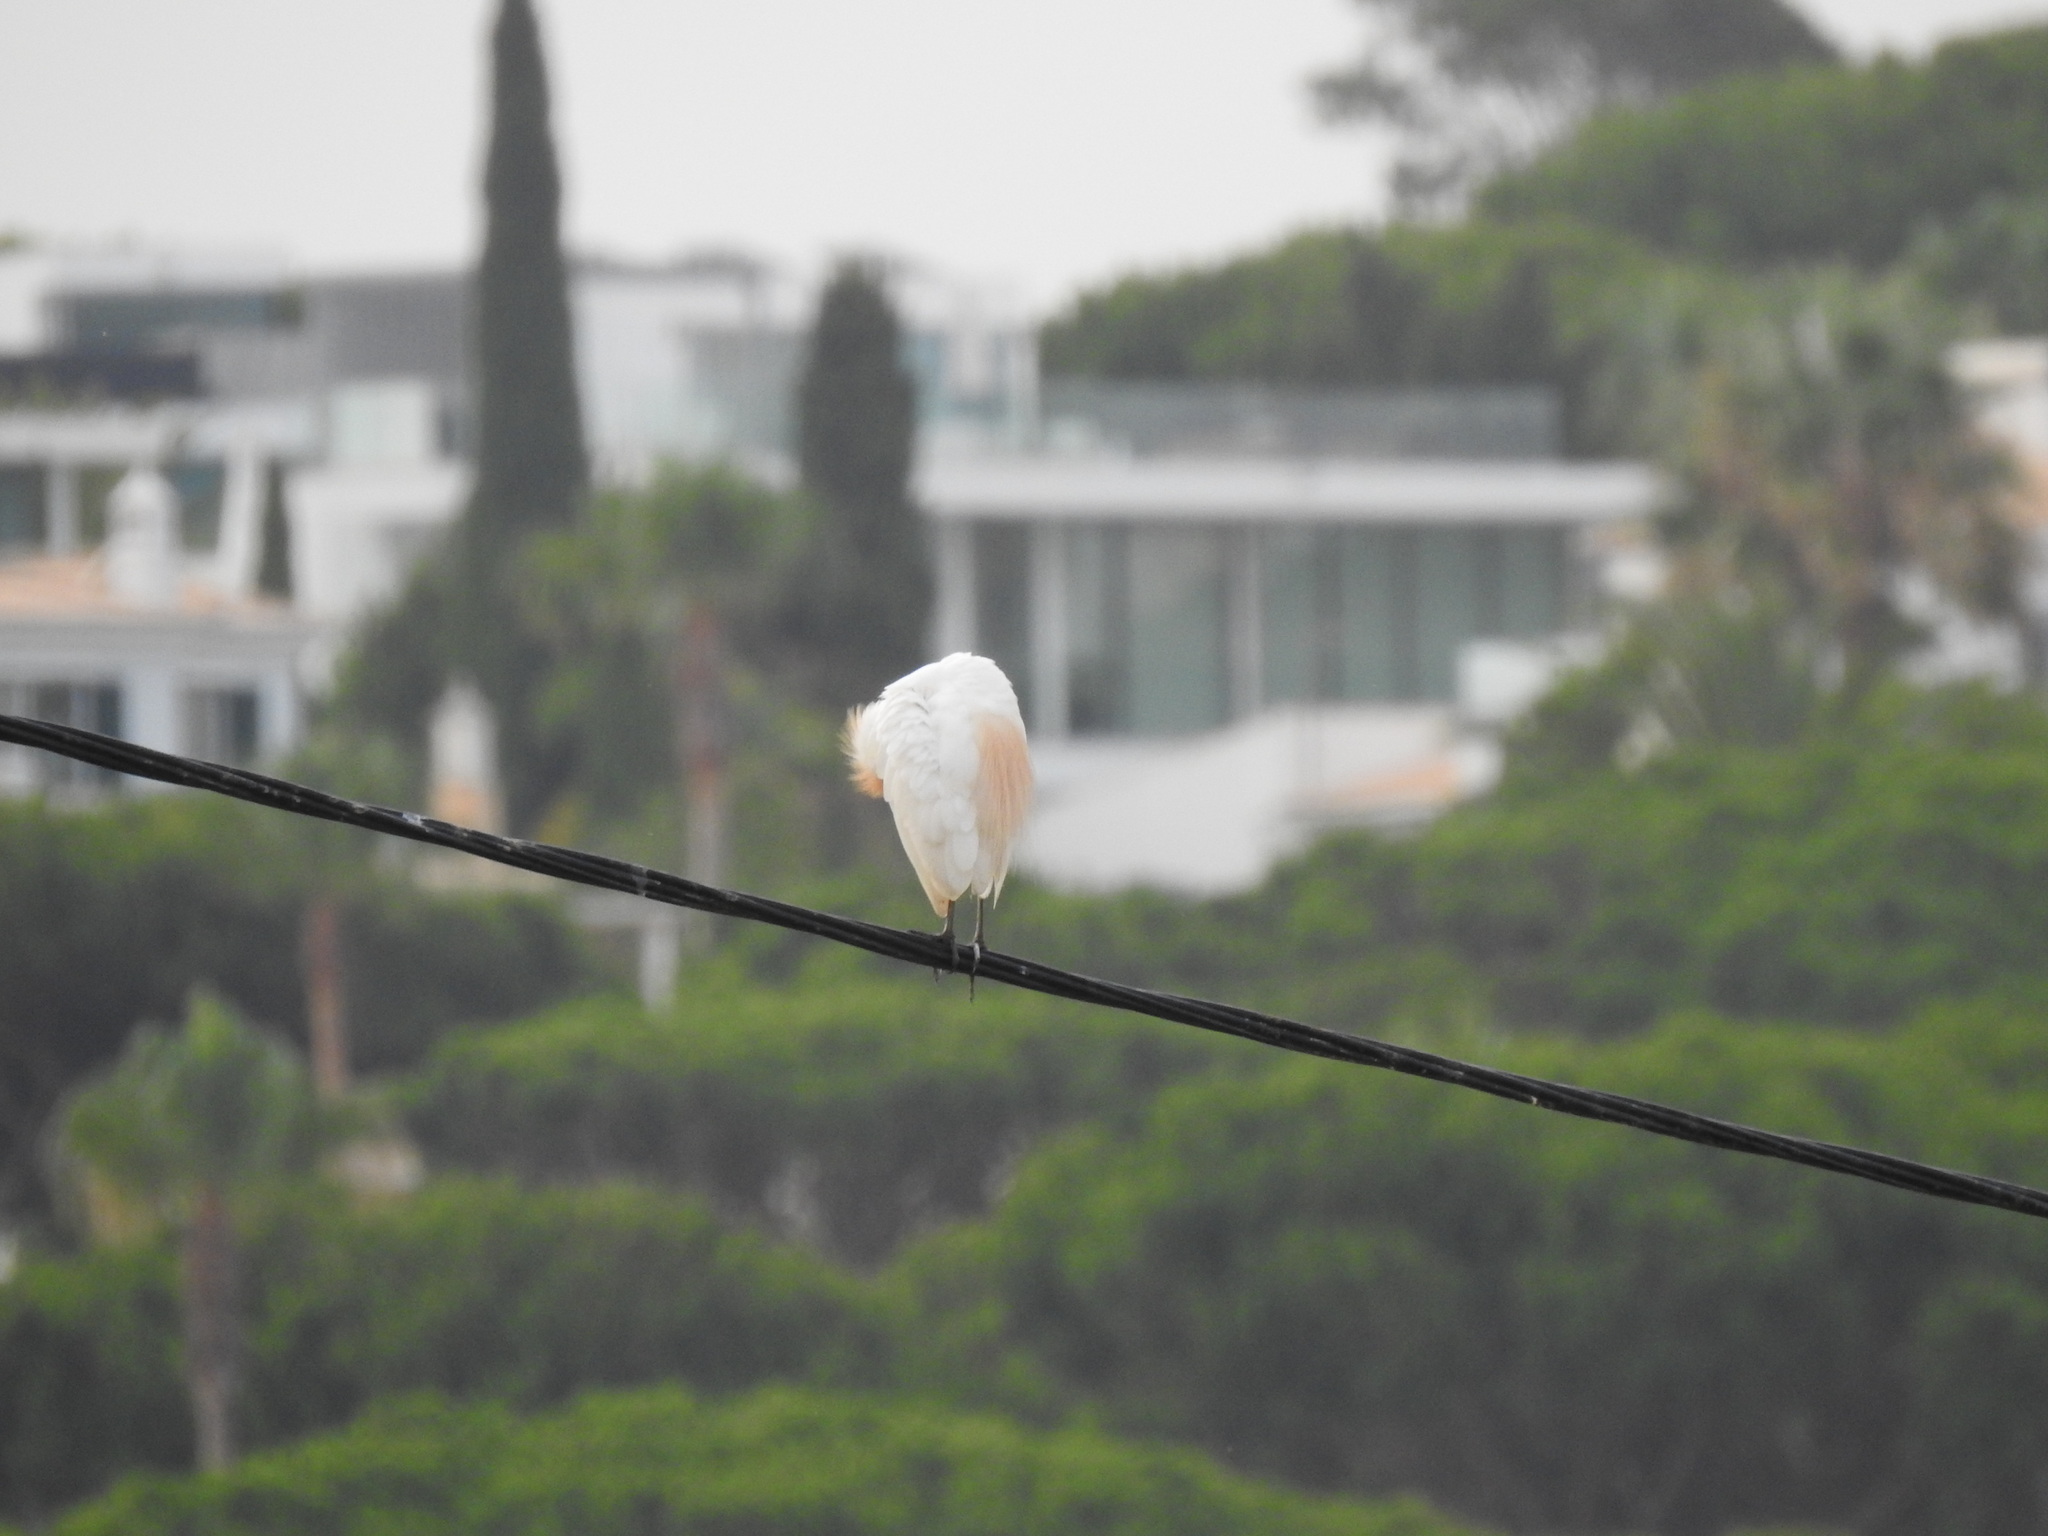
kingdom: Animalia
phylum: Chordata
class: Aves
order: Pelecaniformes
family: Ardeidae
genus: Bubulcus
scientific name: Bubulcus ibis
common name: Cattle egret
